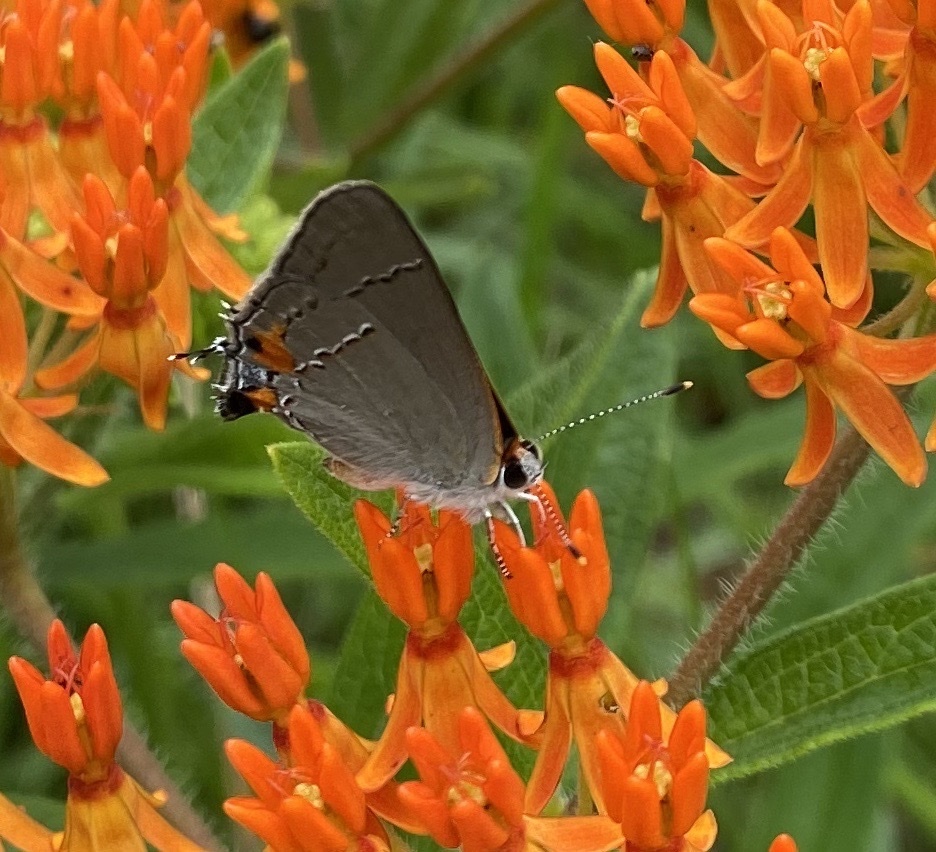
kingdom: Animalia
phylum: Arthropoda
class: Insecta
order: Lepidoptera
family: Lycaenidae
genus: Strymon
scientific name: Strymon melinus
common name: Gray hairstreak
